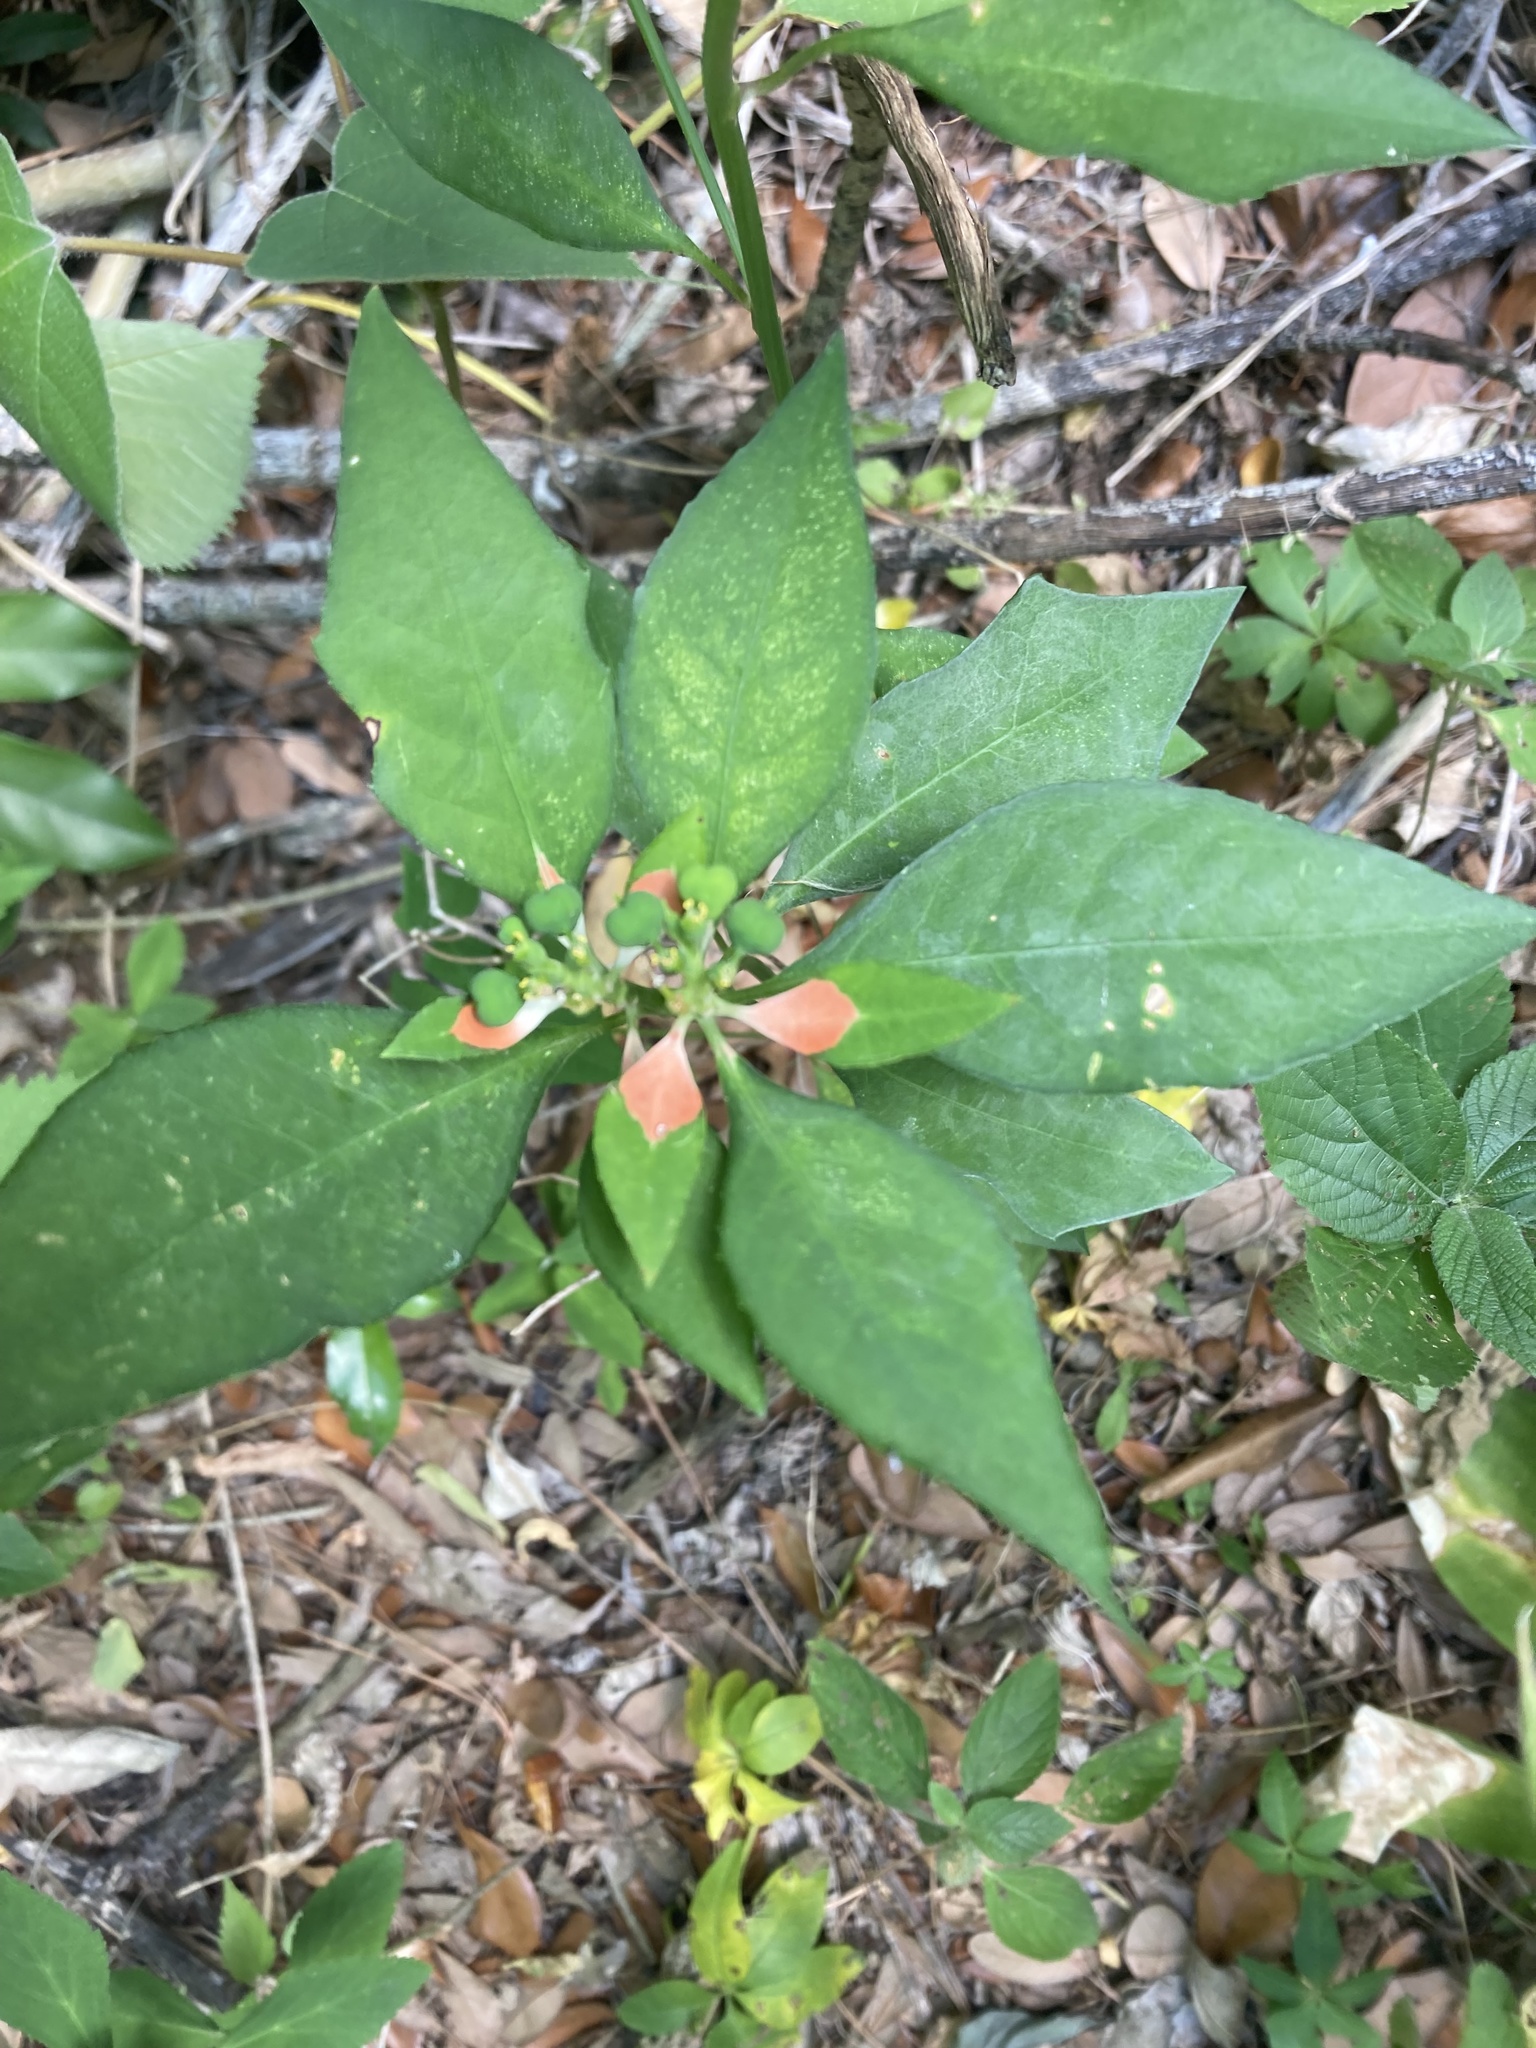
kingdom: Plantae
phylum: Tracheophyta
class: Magnoliopsida
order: Malpighiales
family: Euphorbiaceae
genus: Euphorbia
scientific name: Euphorbia heterophylla
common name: Mexican fireplant
